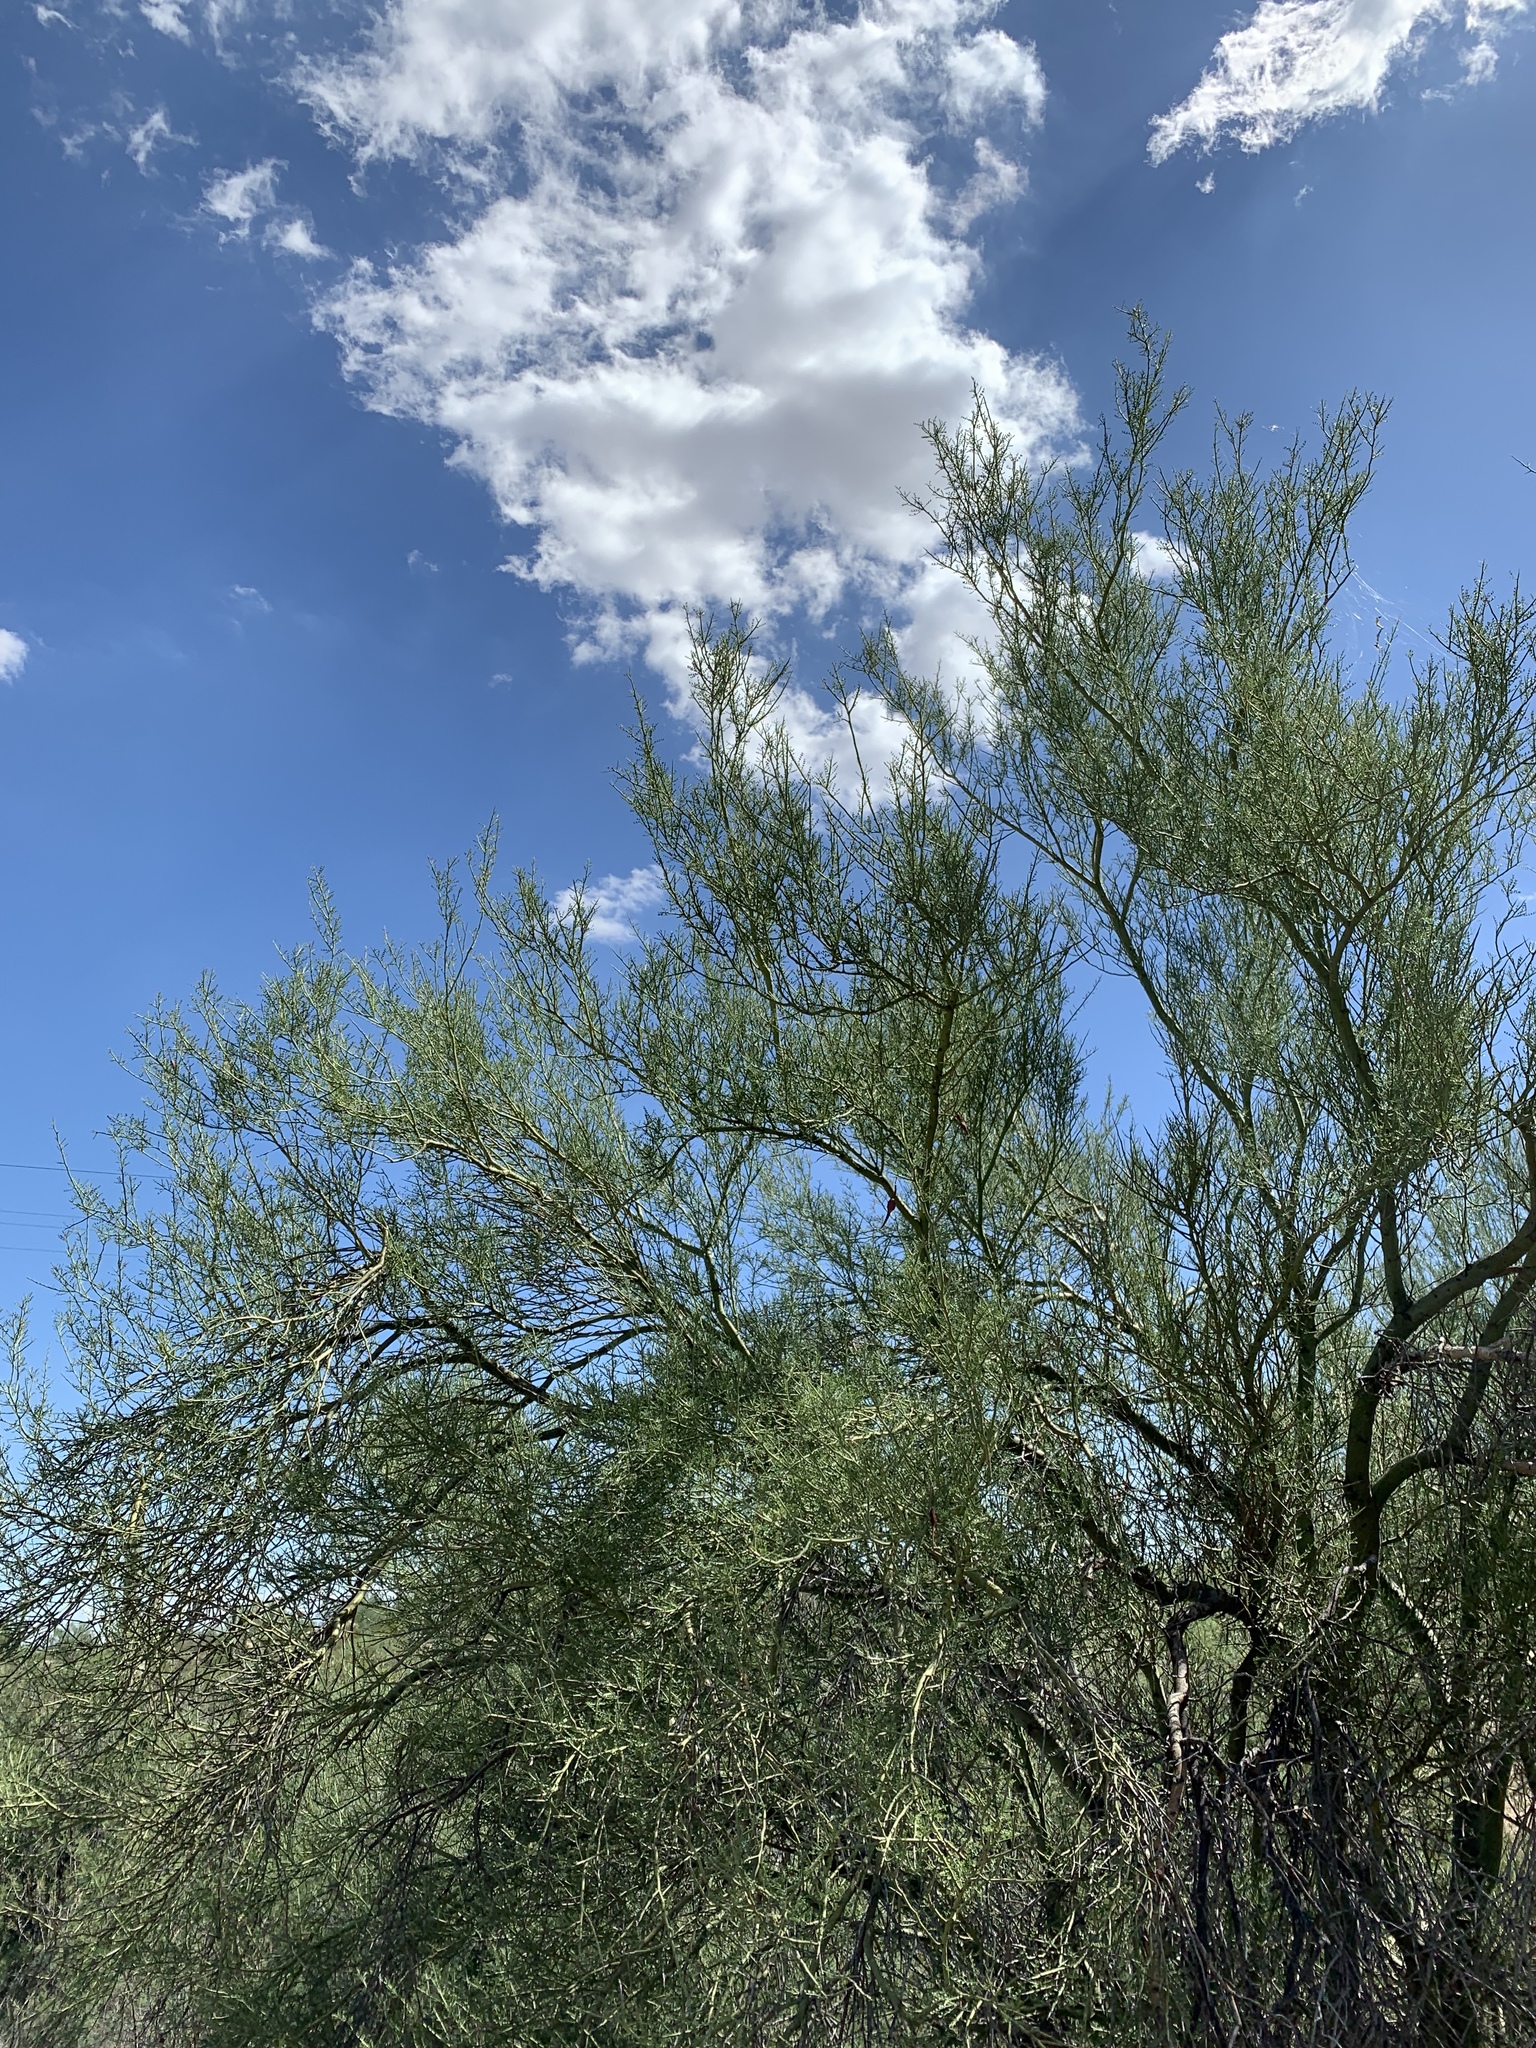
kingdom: Plantae
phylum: Tracheophyta
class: Magnoliopsida
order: Fabales
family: Fabaceae
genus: Parkinsonia
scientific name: Parkinsonia microphylla
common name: Yellow paloverde
